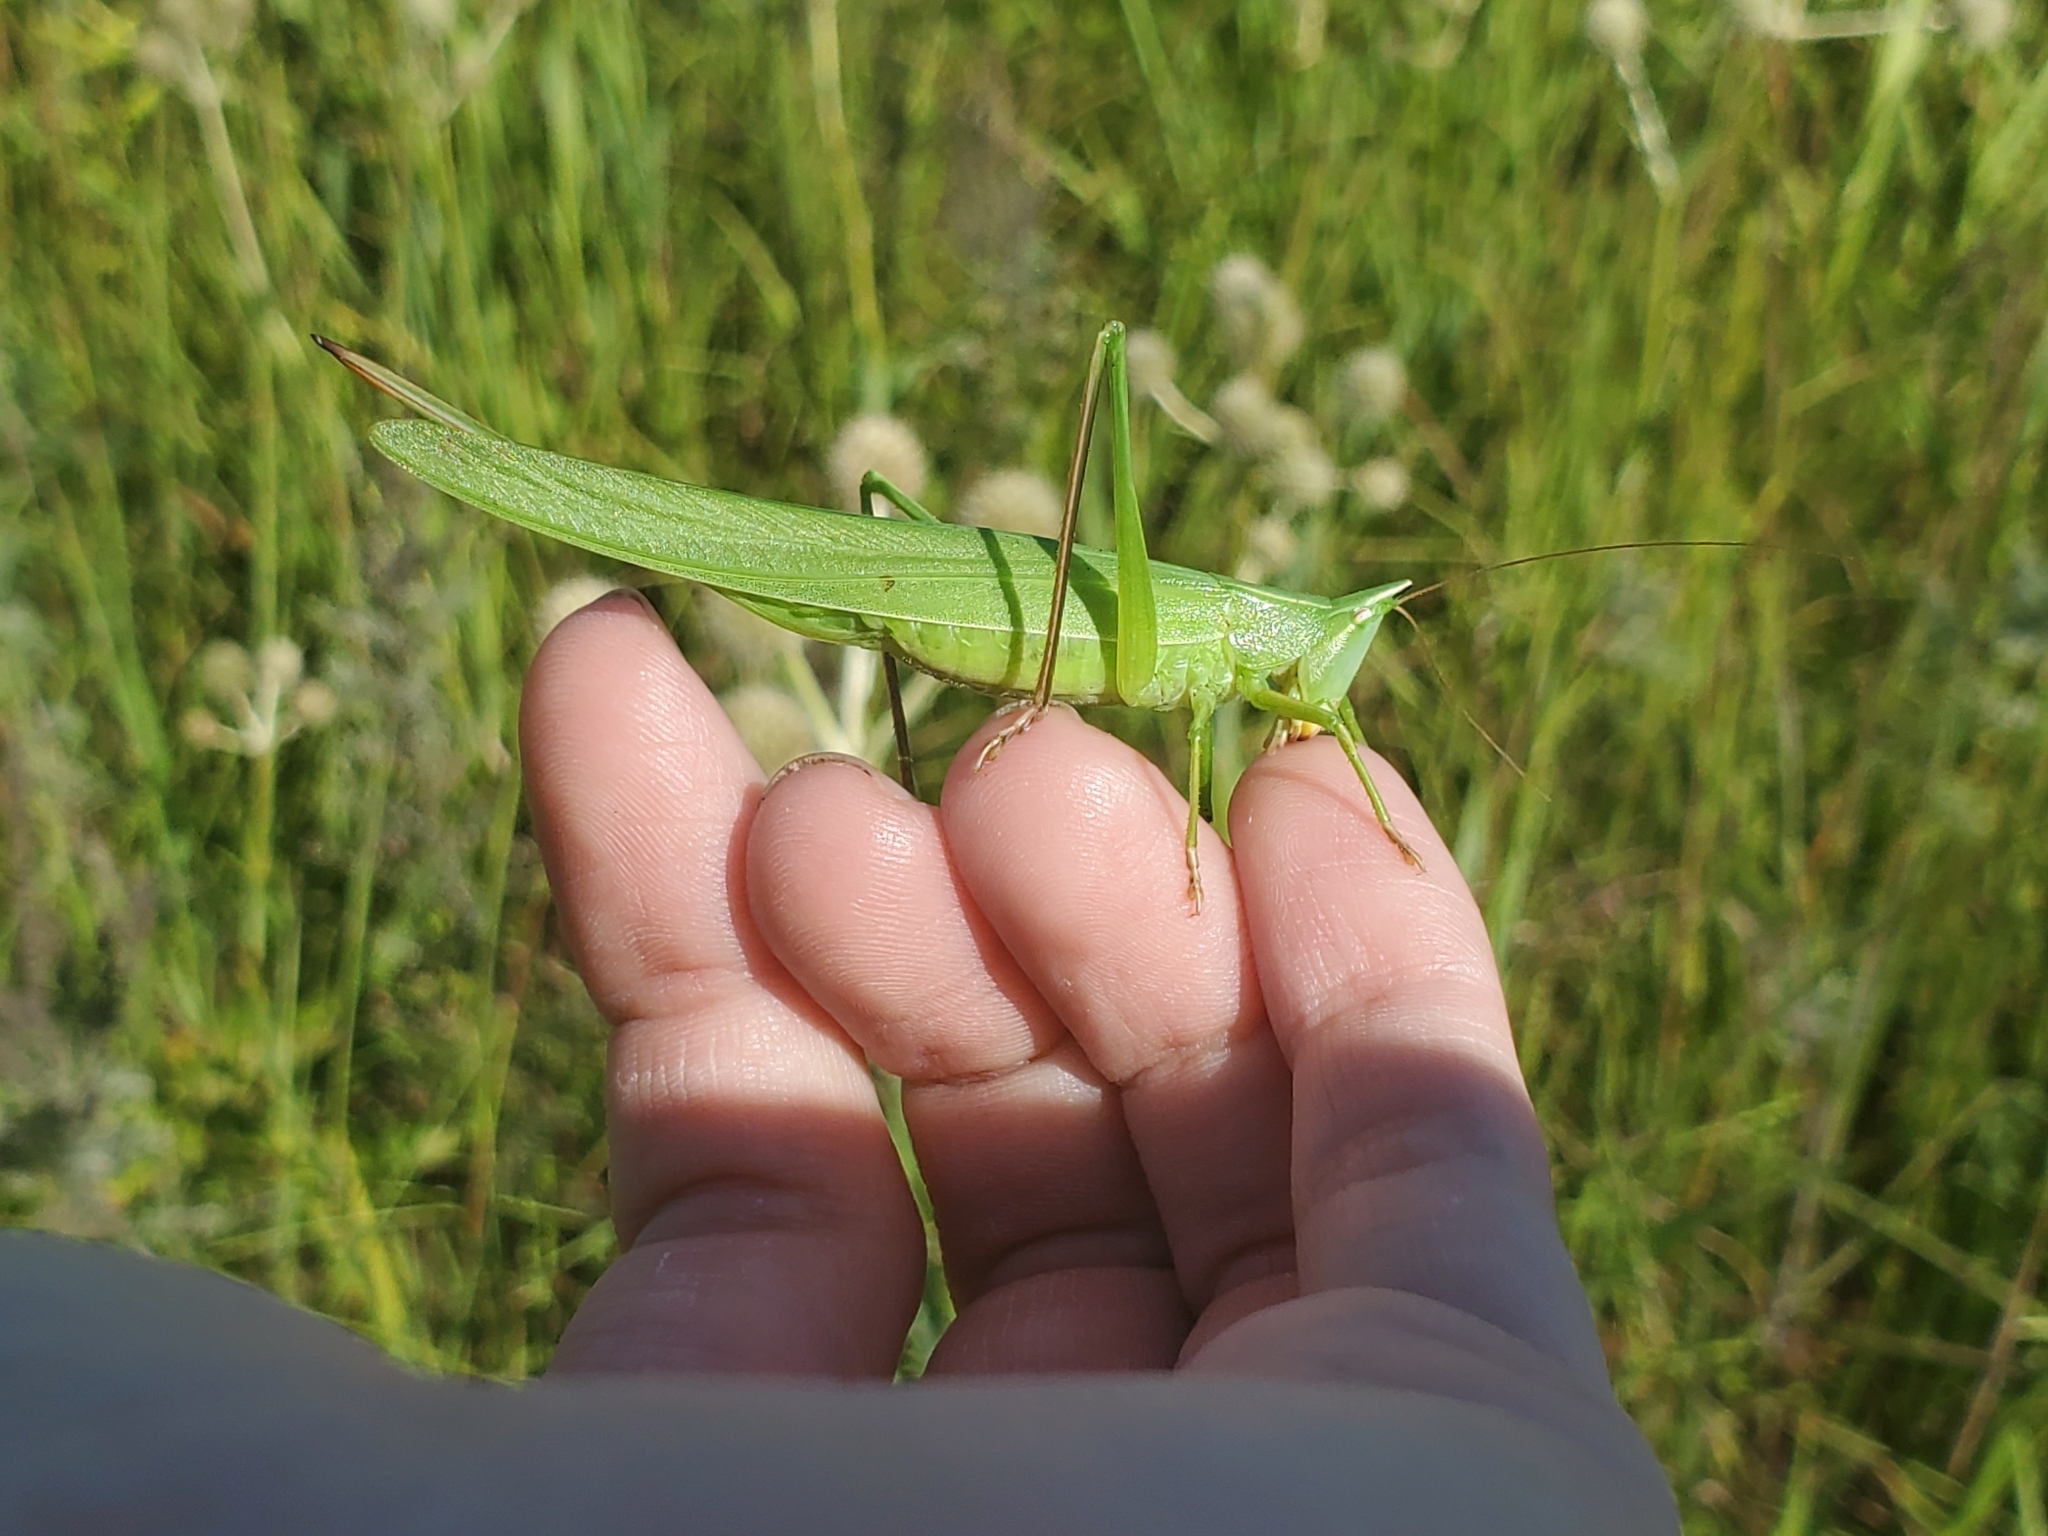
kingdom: Animalia
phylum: Arthropoda
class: Insecta
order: Orthoptera
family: Tettigoniidae
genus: Neoconocephalus
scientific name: Neoconocephalus ensiger
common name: Swordbearer
